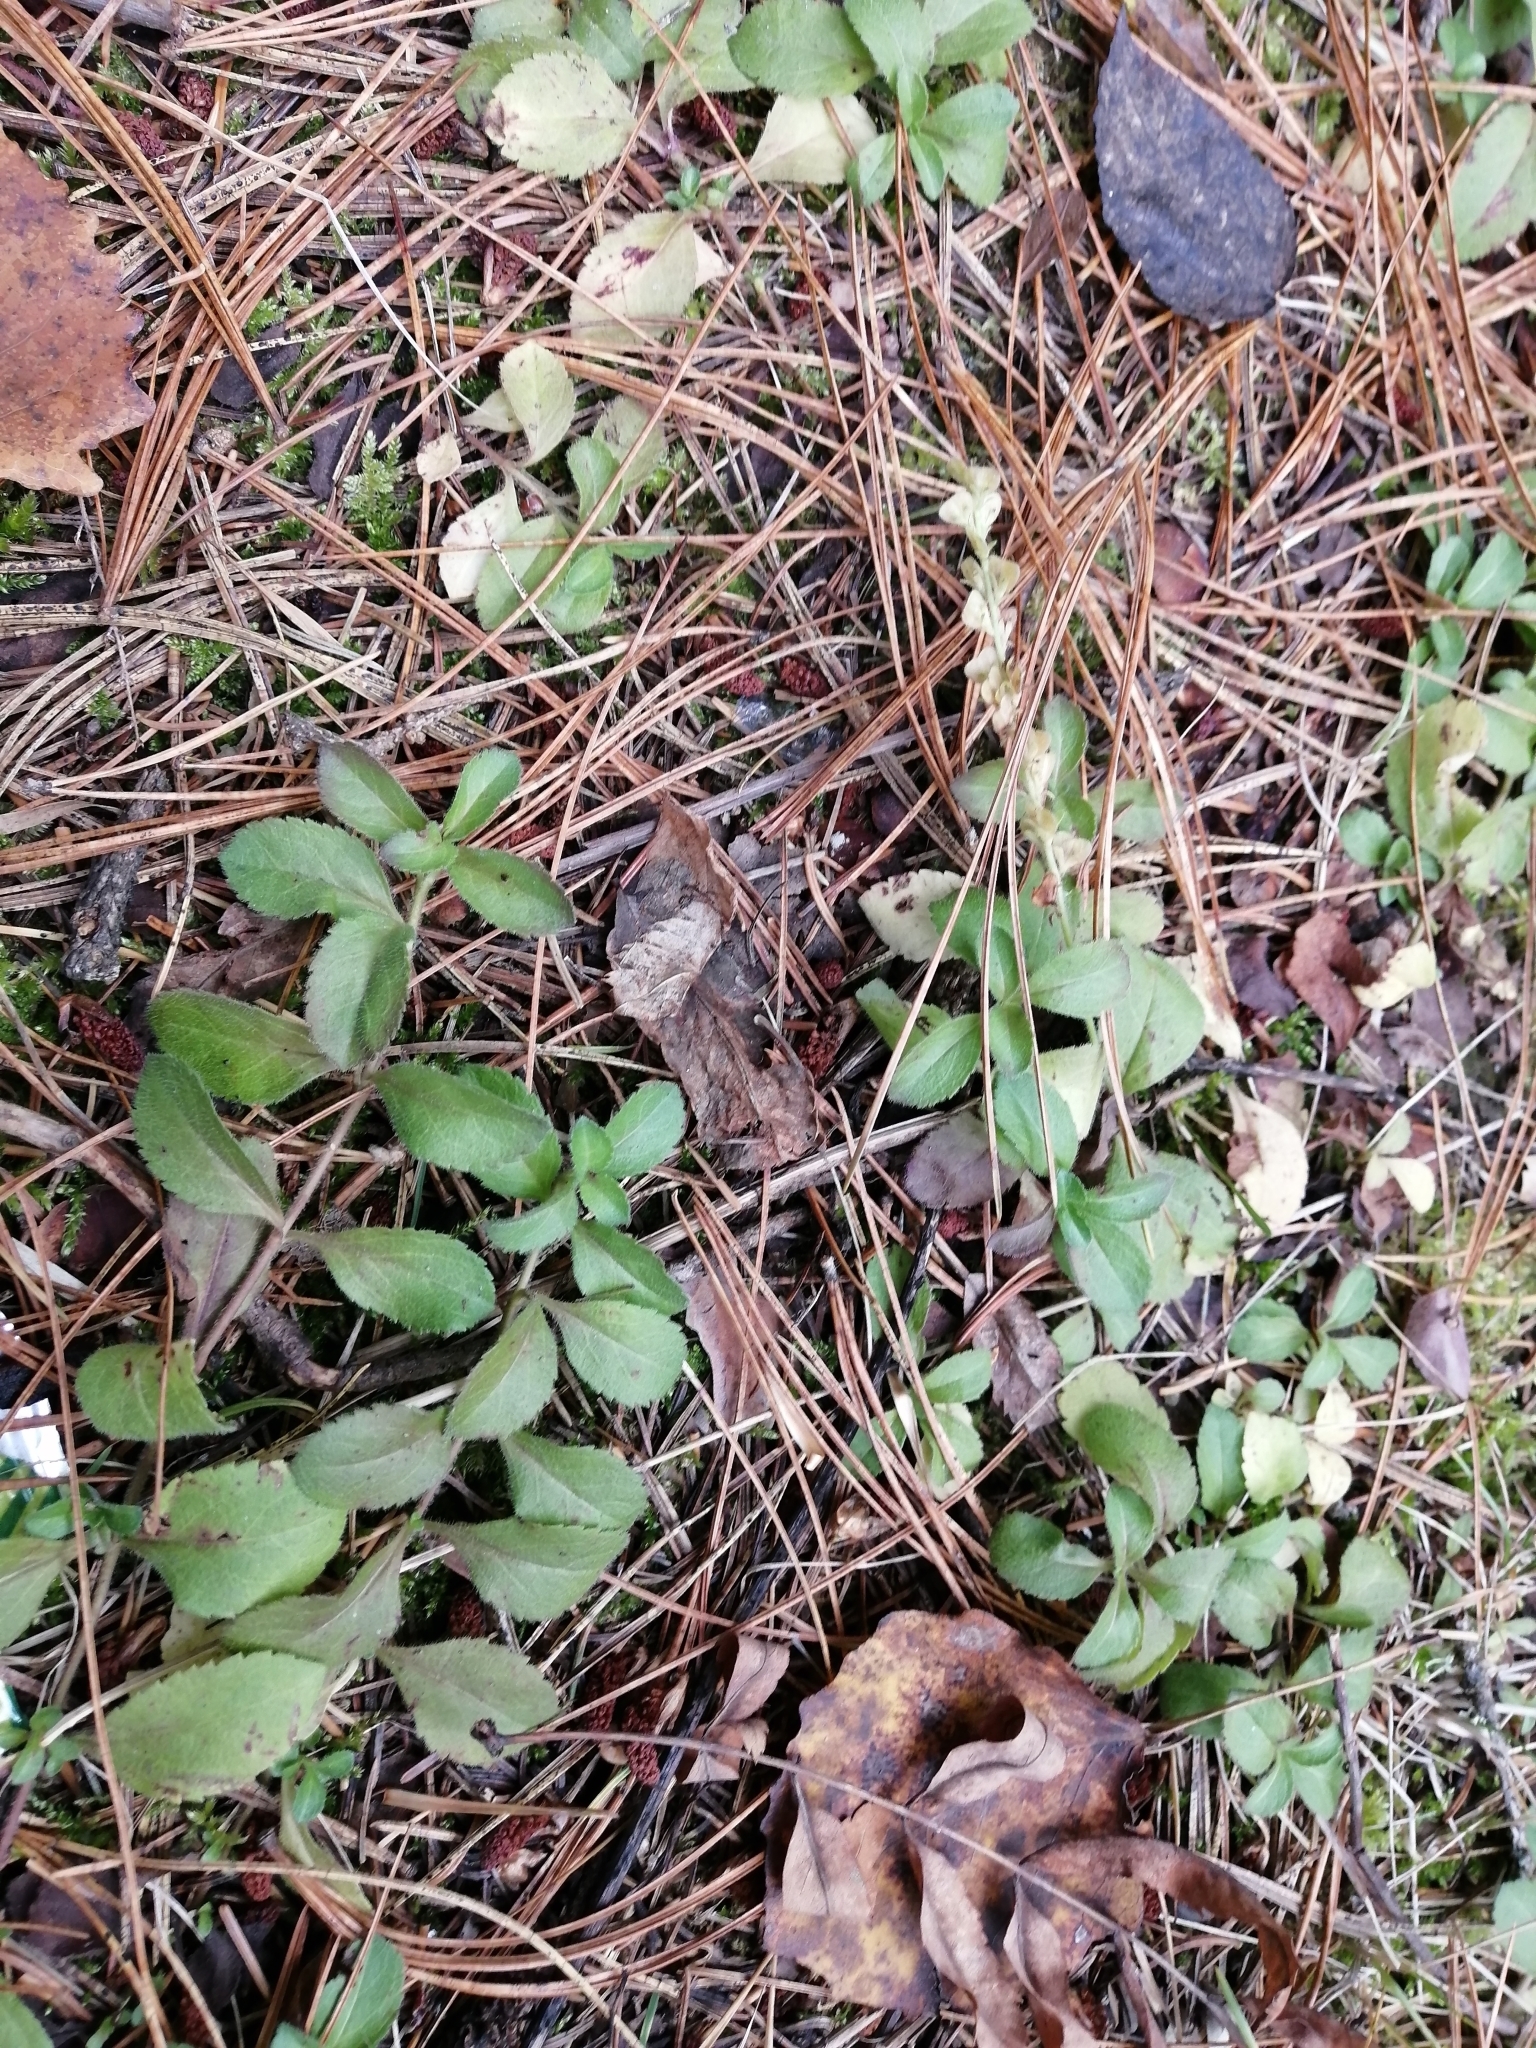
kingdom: Plantae
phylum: Tracheophyta
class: Magnoliopsida
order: Lamiales
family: Plantaginaceae
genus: Veronica
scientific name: Veronica officinalis
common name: Common speedwell
